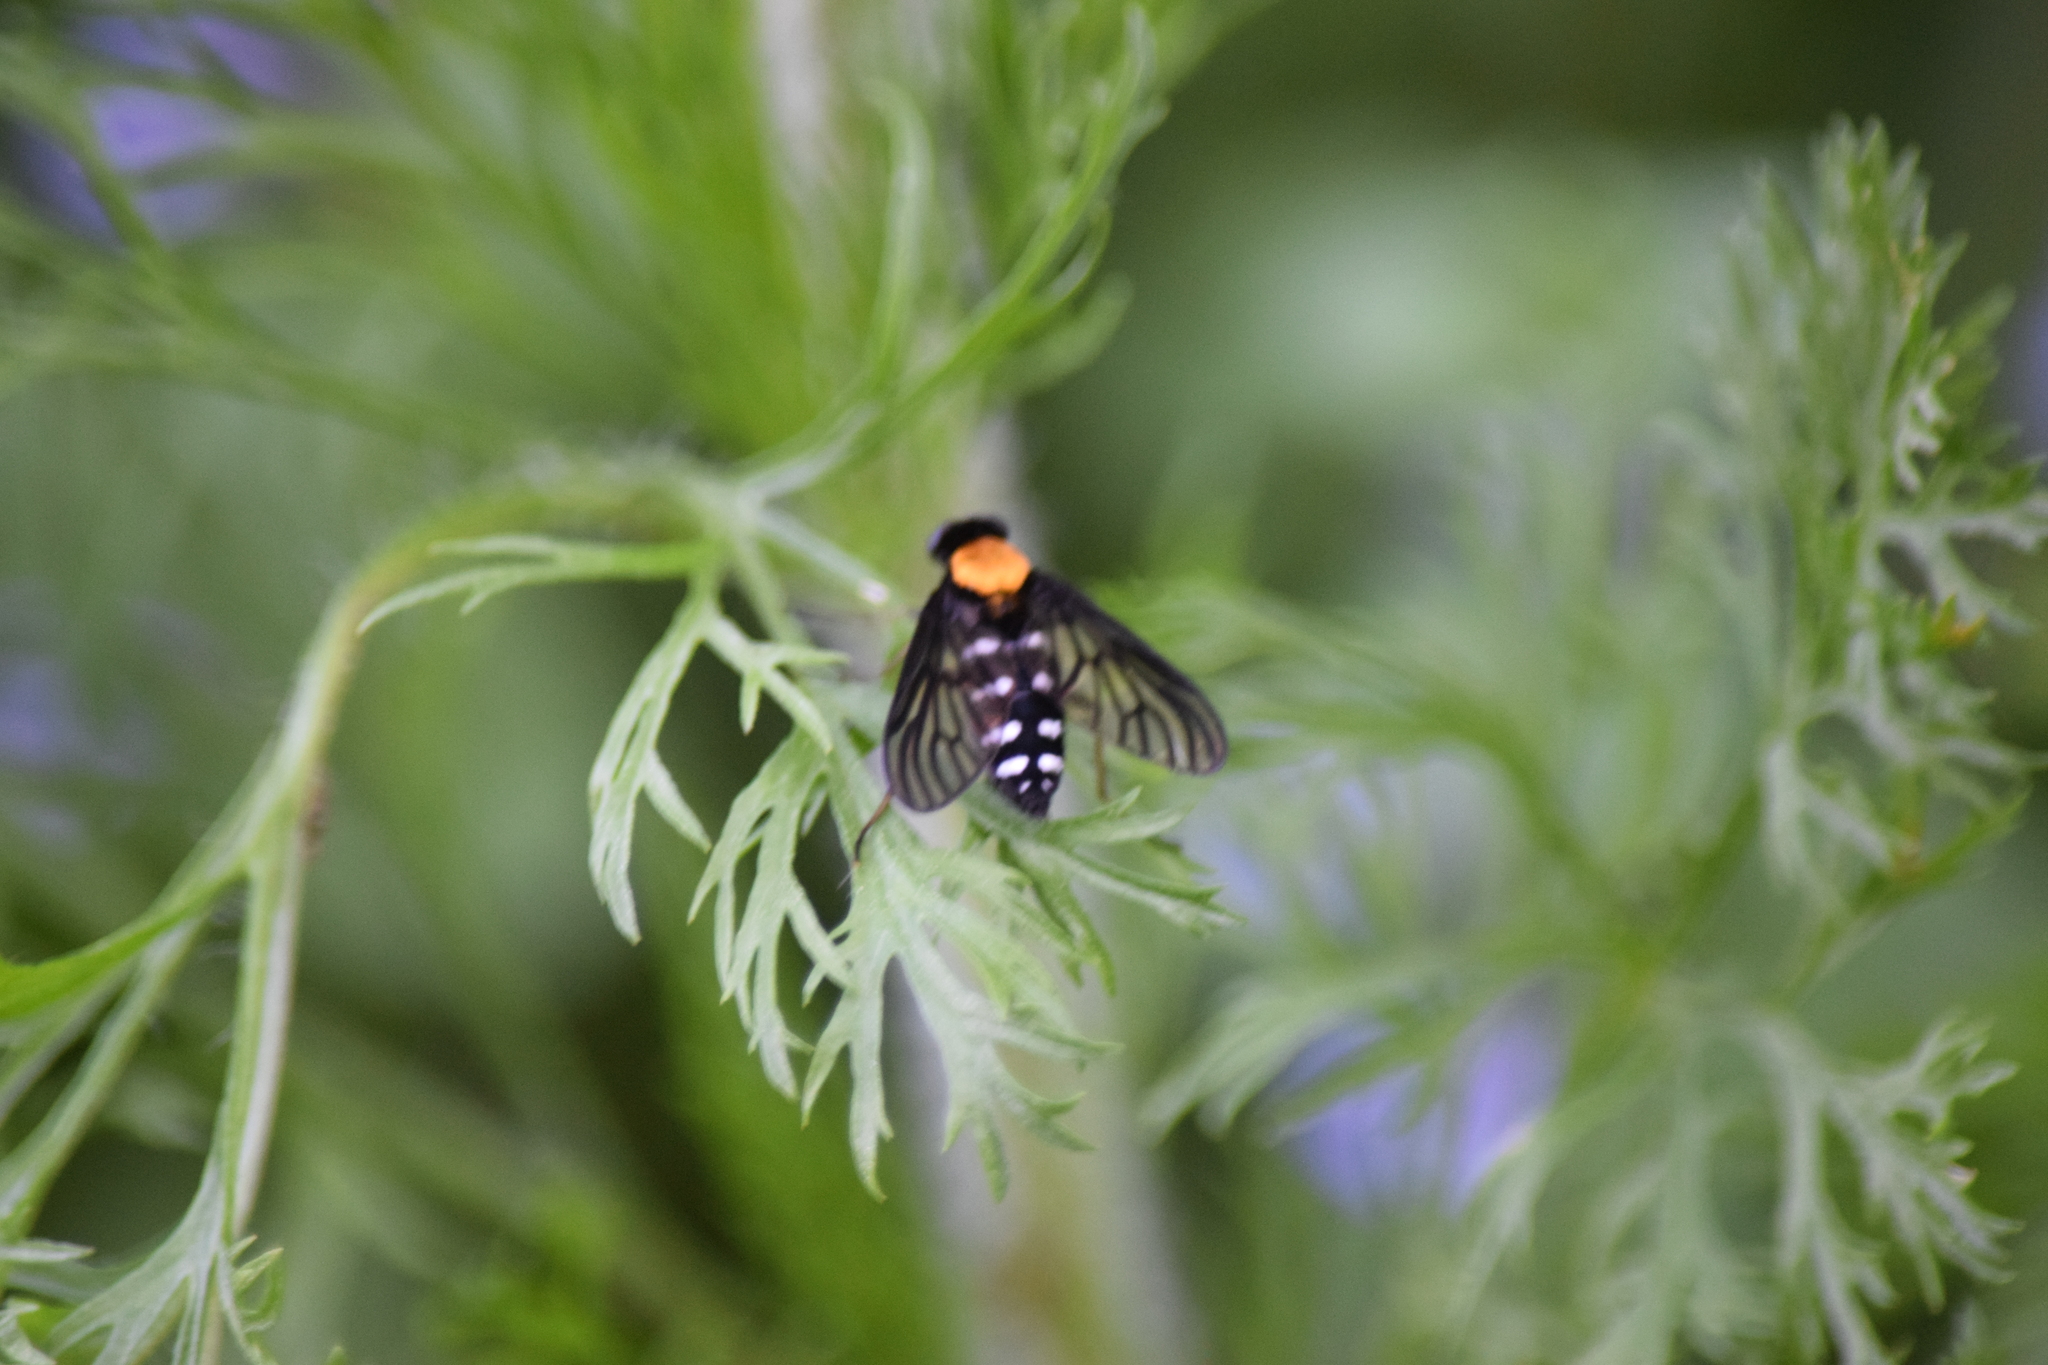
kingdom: Animalia
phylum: Arthropoda
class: Insecta
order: Diptera
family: Rhagionidae
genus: Chrysopilus
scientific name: Chrysopilus thoracicus
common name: Golden-backed snipe fly
